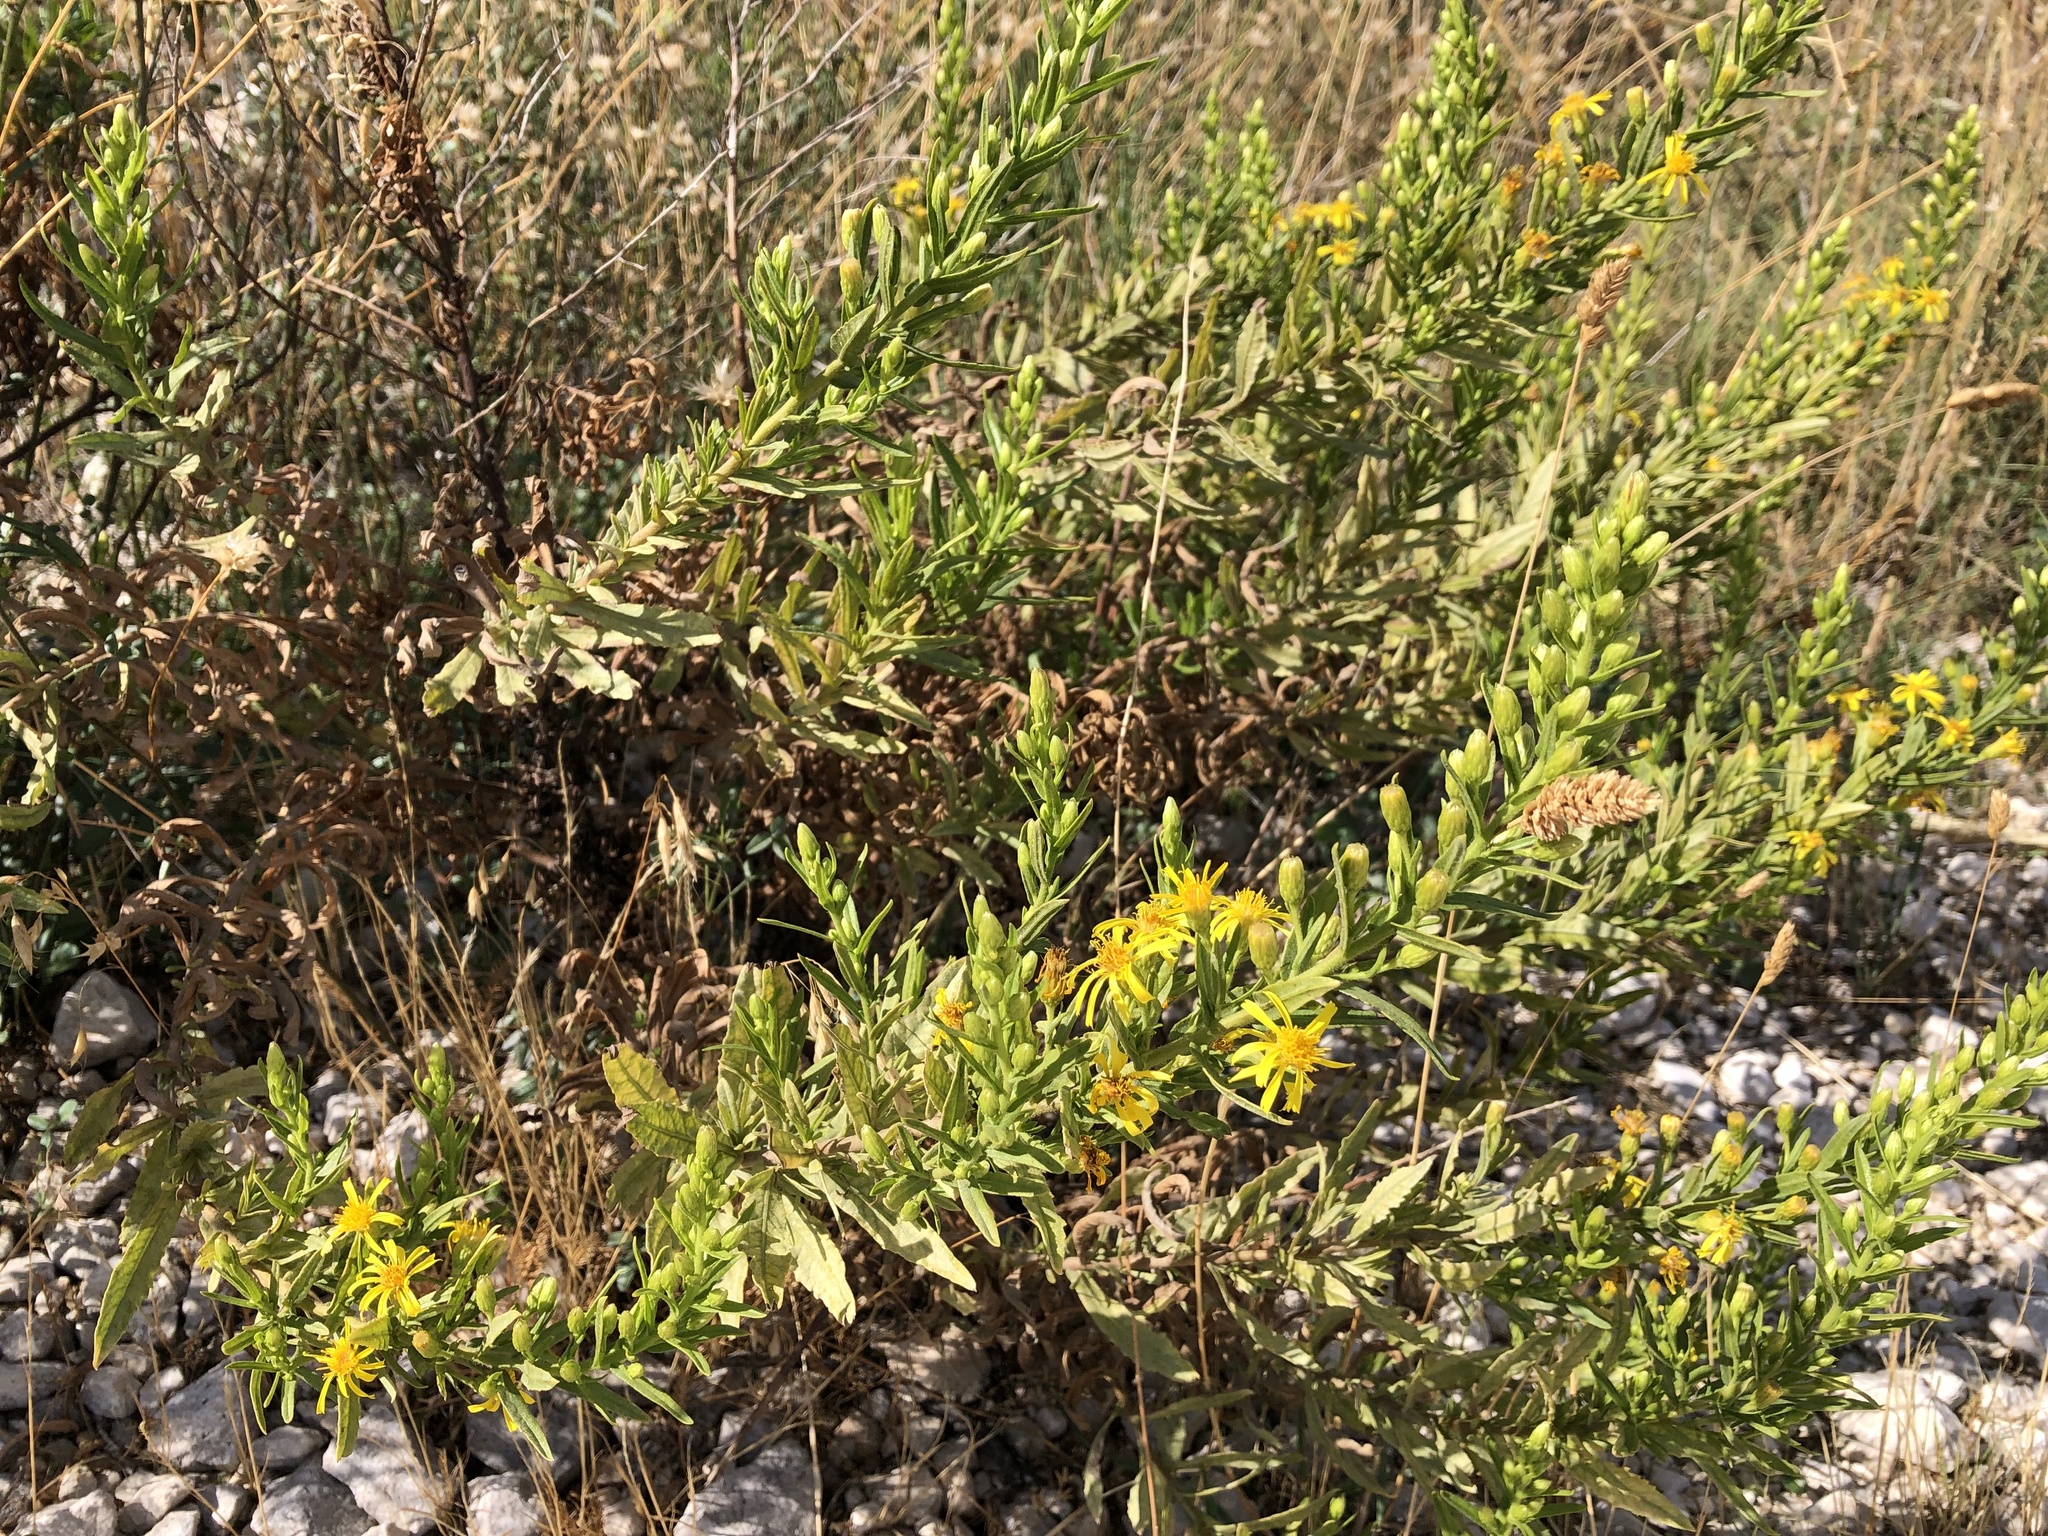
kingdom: Plantae
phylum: Tracheophyta
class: Magnoliopsida
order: Asterales
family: Asteraceae
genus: Dittrichia
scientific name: Dittrichia viscosa
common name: Woody fleabane
